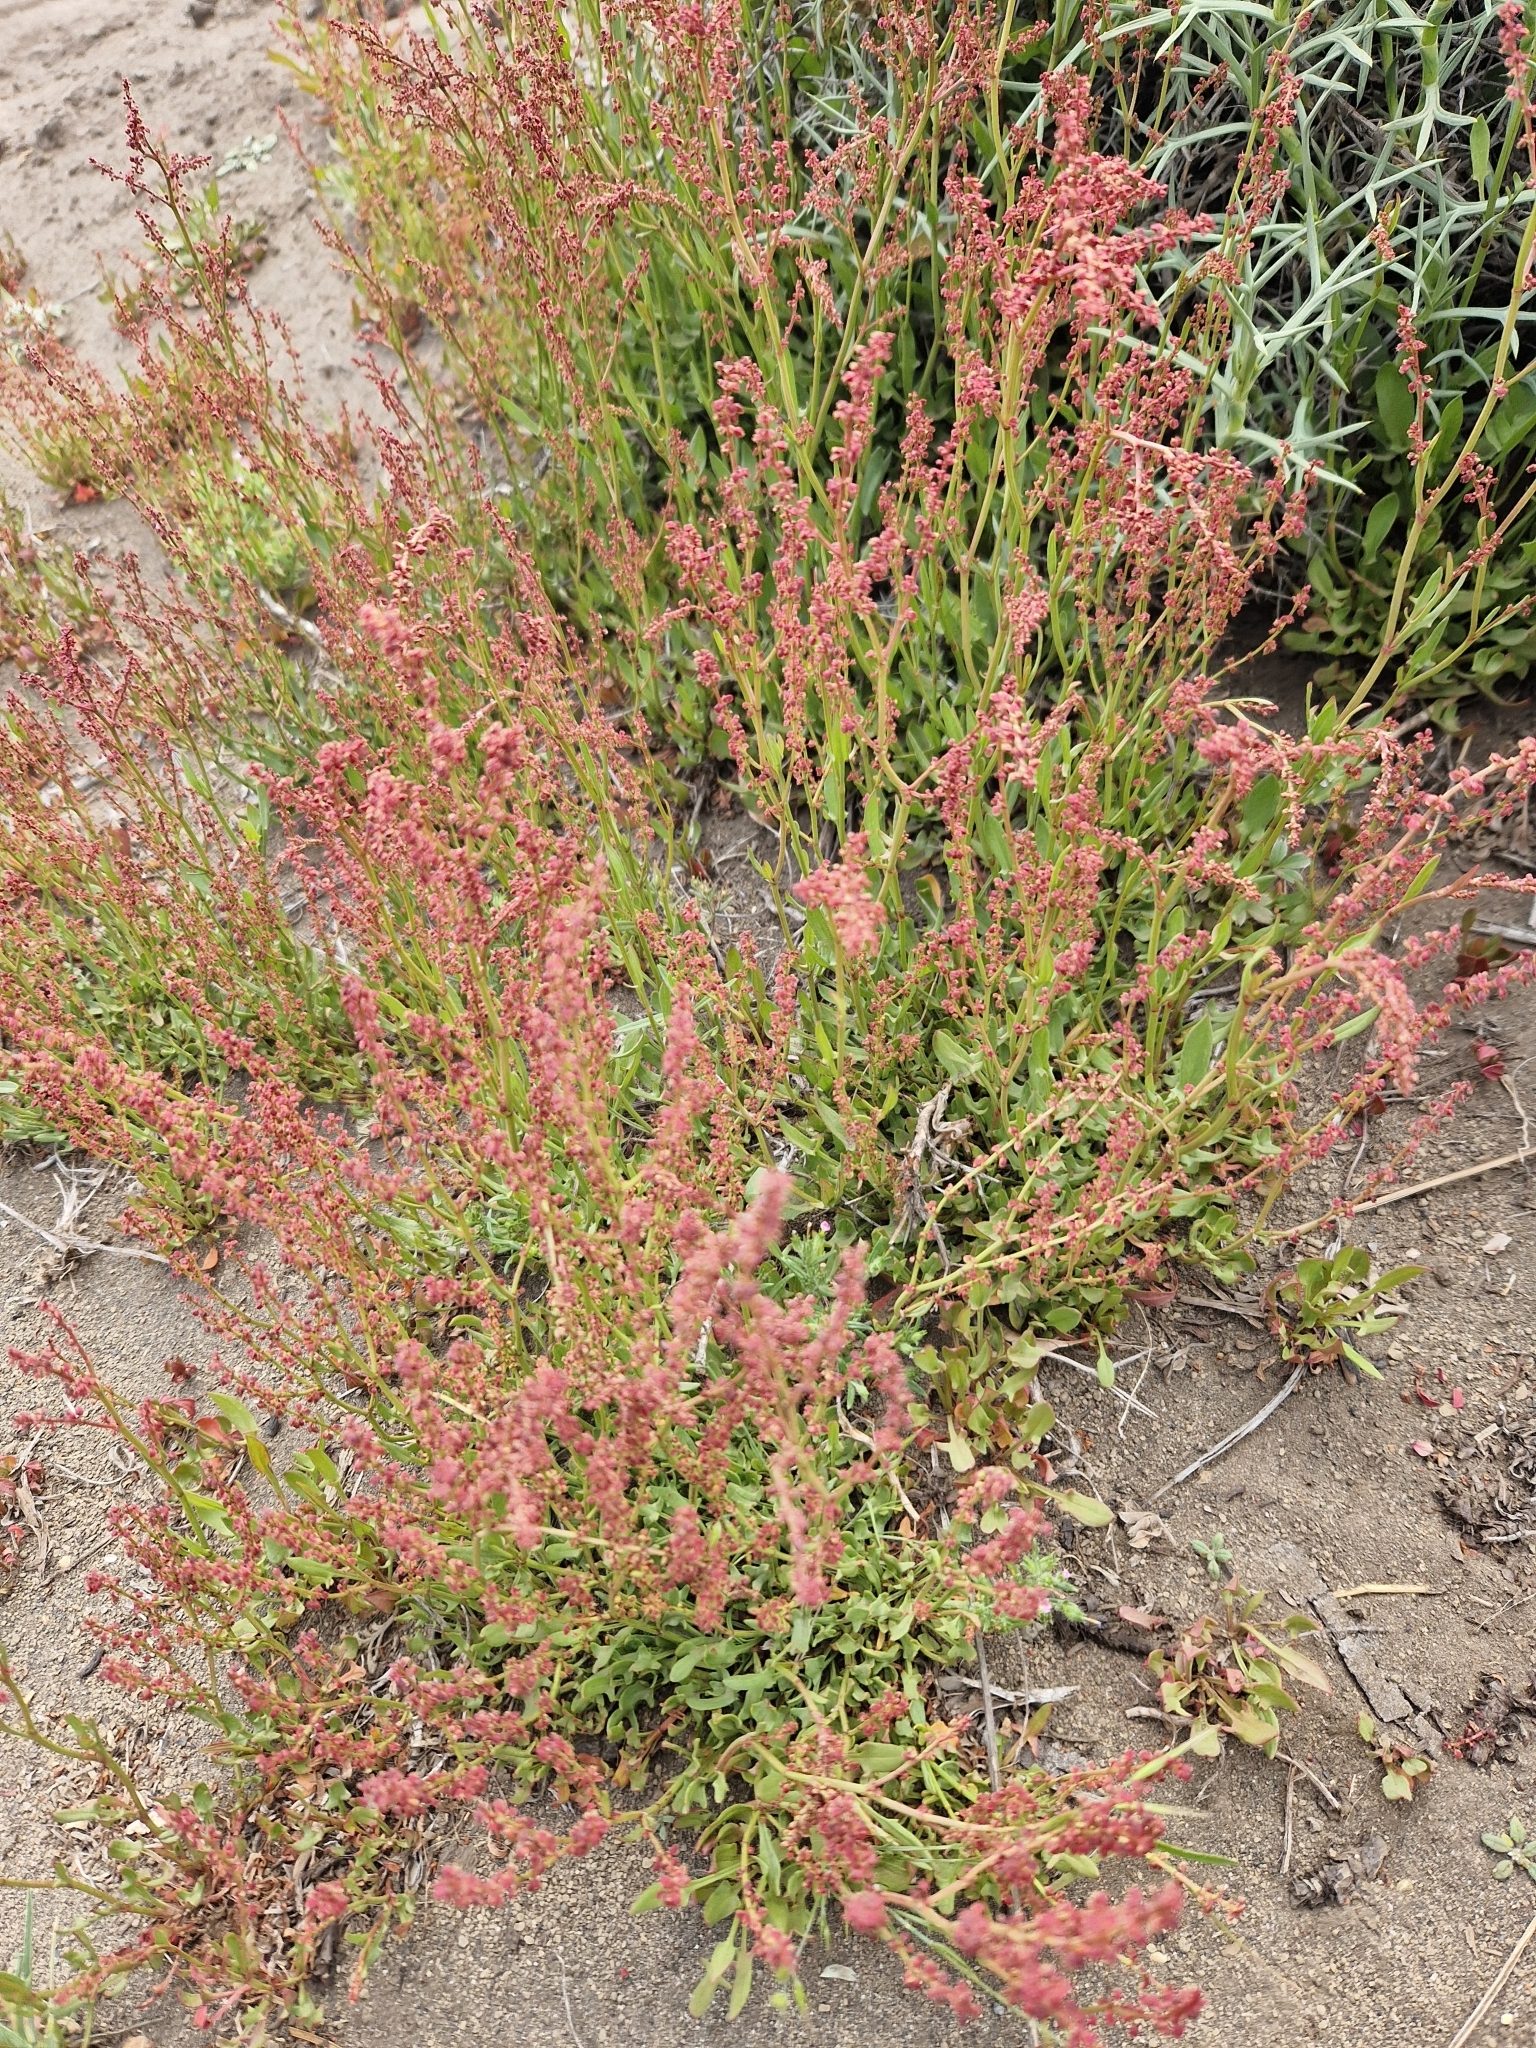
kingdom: Plantae
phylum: Tracheophyta
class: Magnoliopsida
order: Caryophyllales
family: Polygonaceae
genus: Rumex
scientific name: Rumex acetosella
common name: Common sheep sorrel
